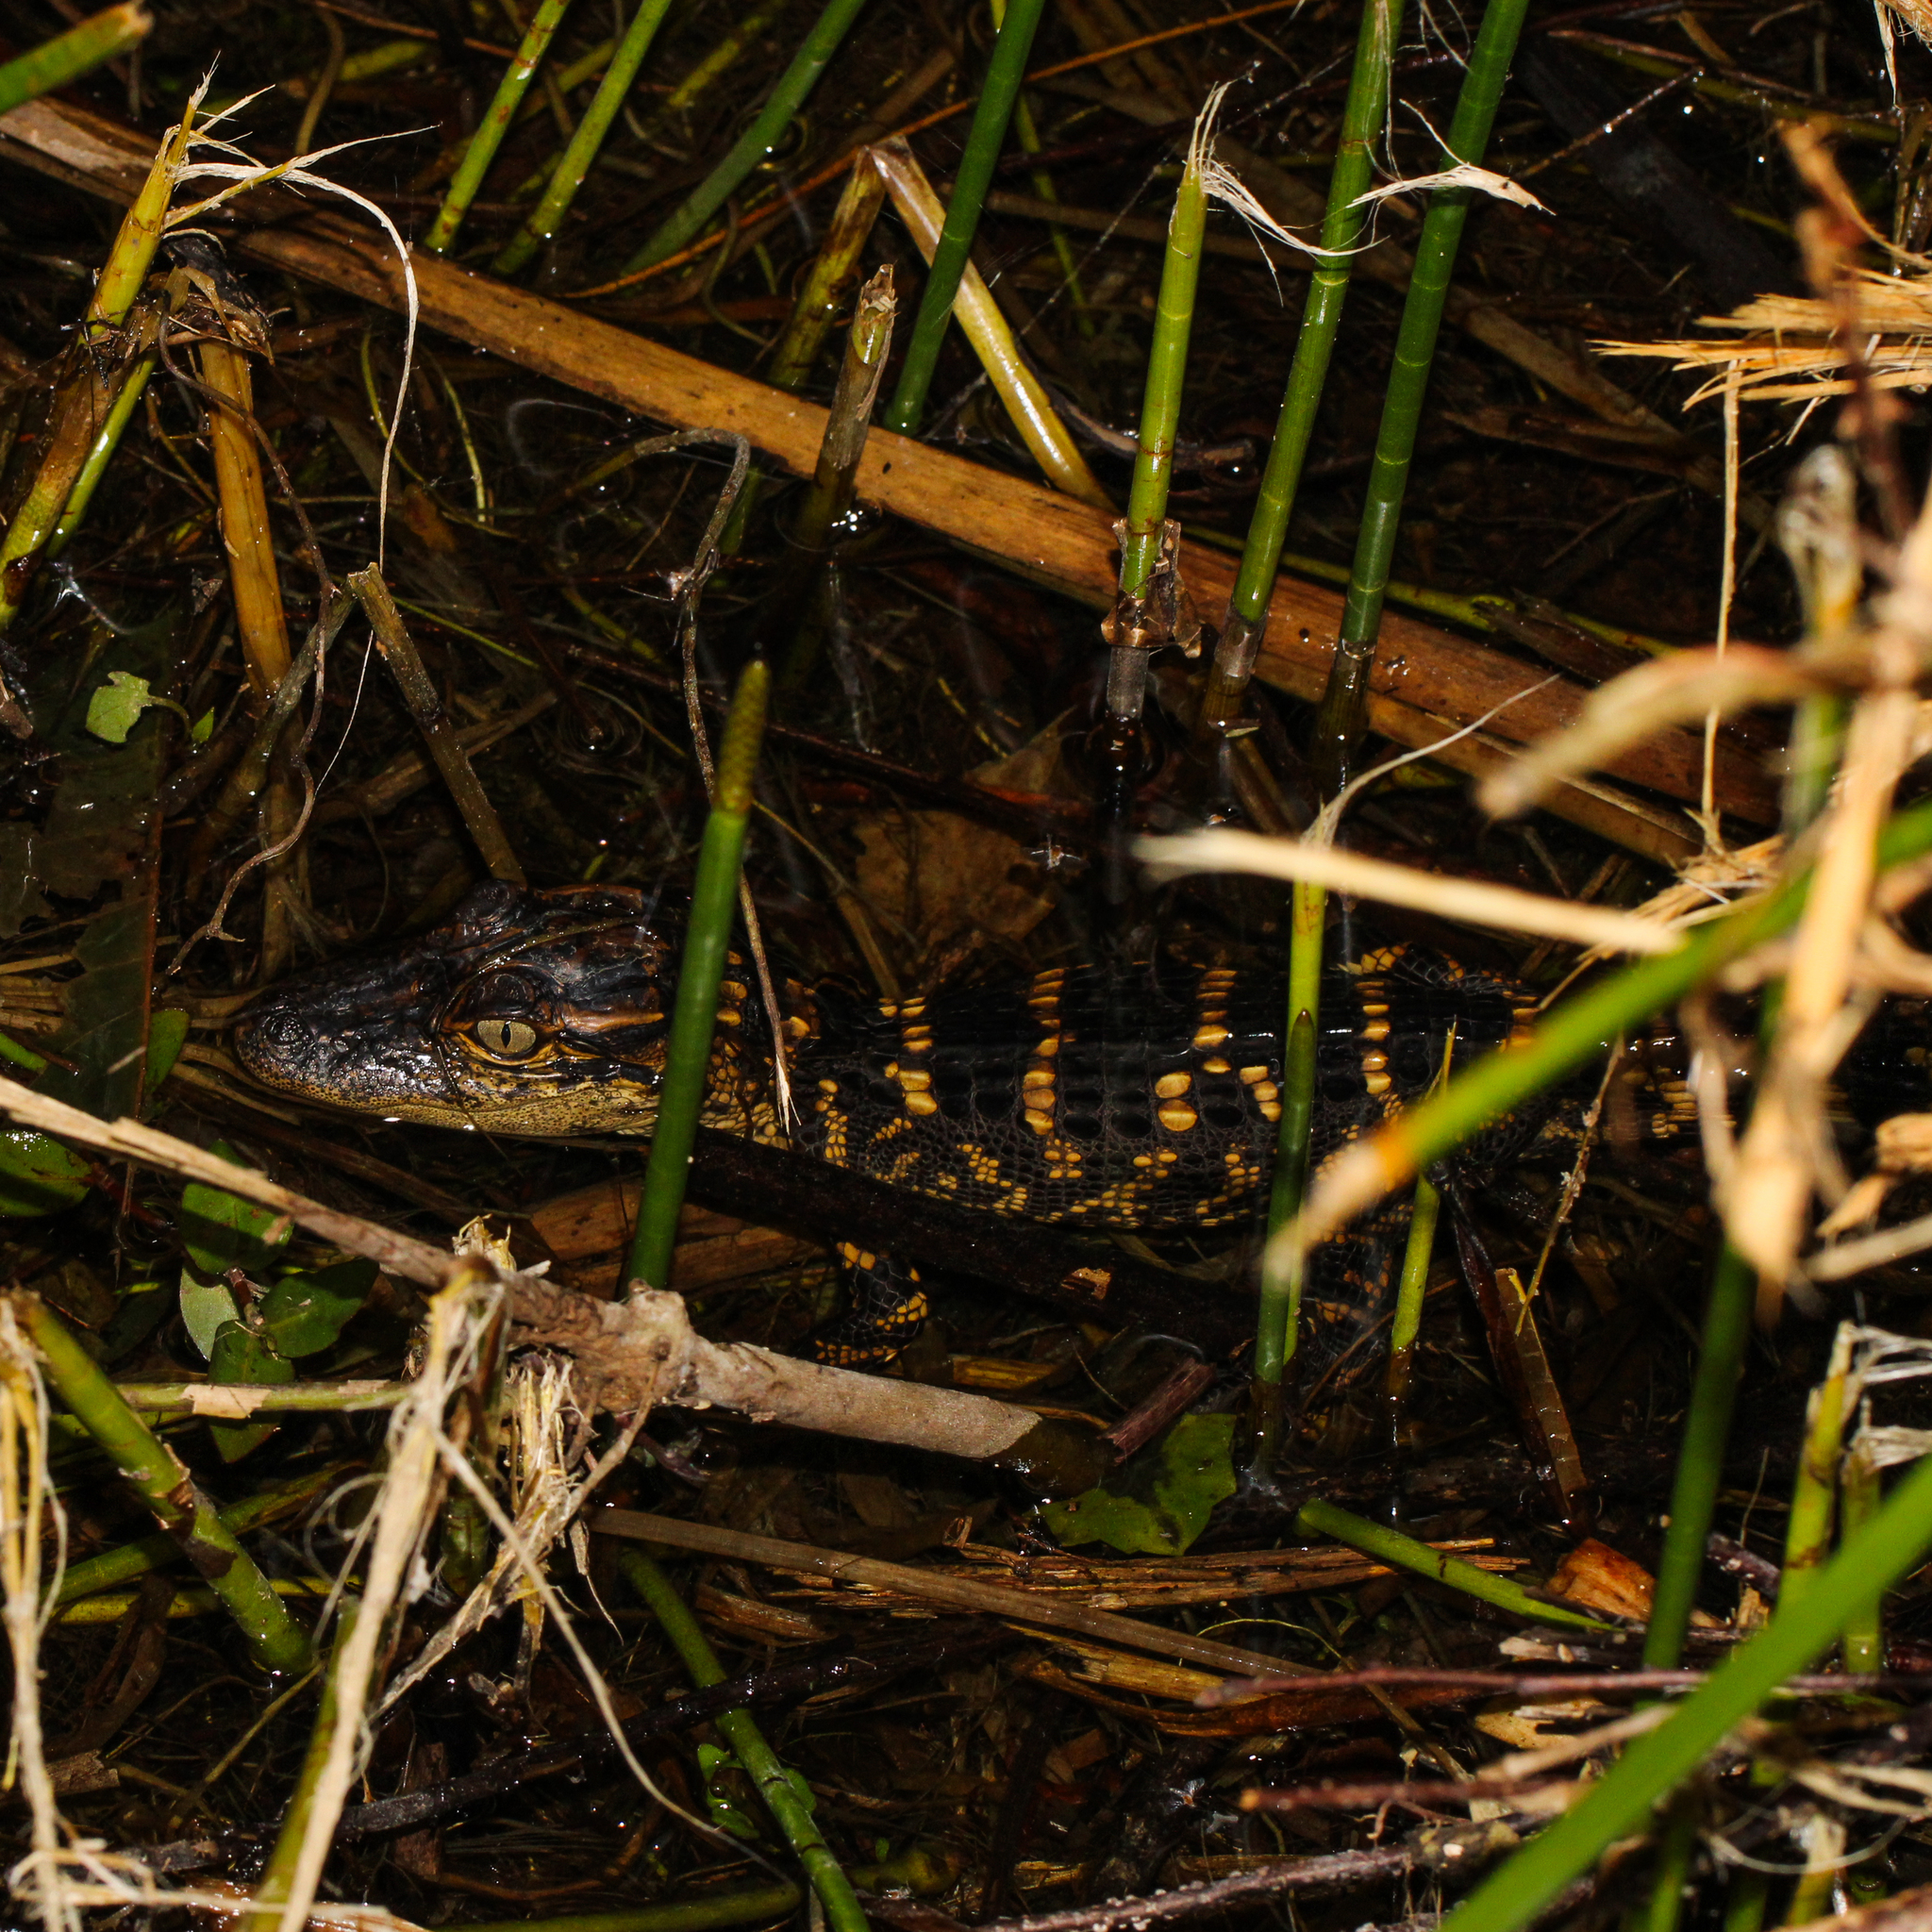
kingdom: Animalia
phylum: Chordata
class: Crocodylia
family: Alligatoridae
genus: Alligator
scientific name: Alligator mississippiensis
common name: American alligator
